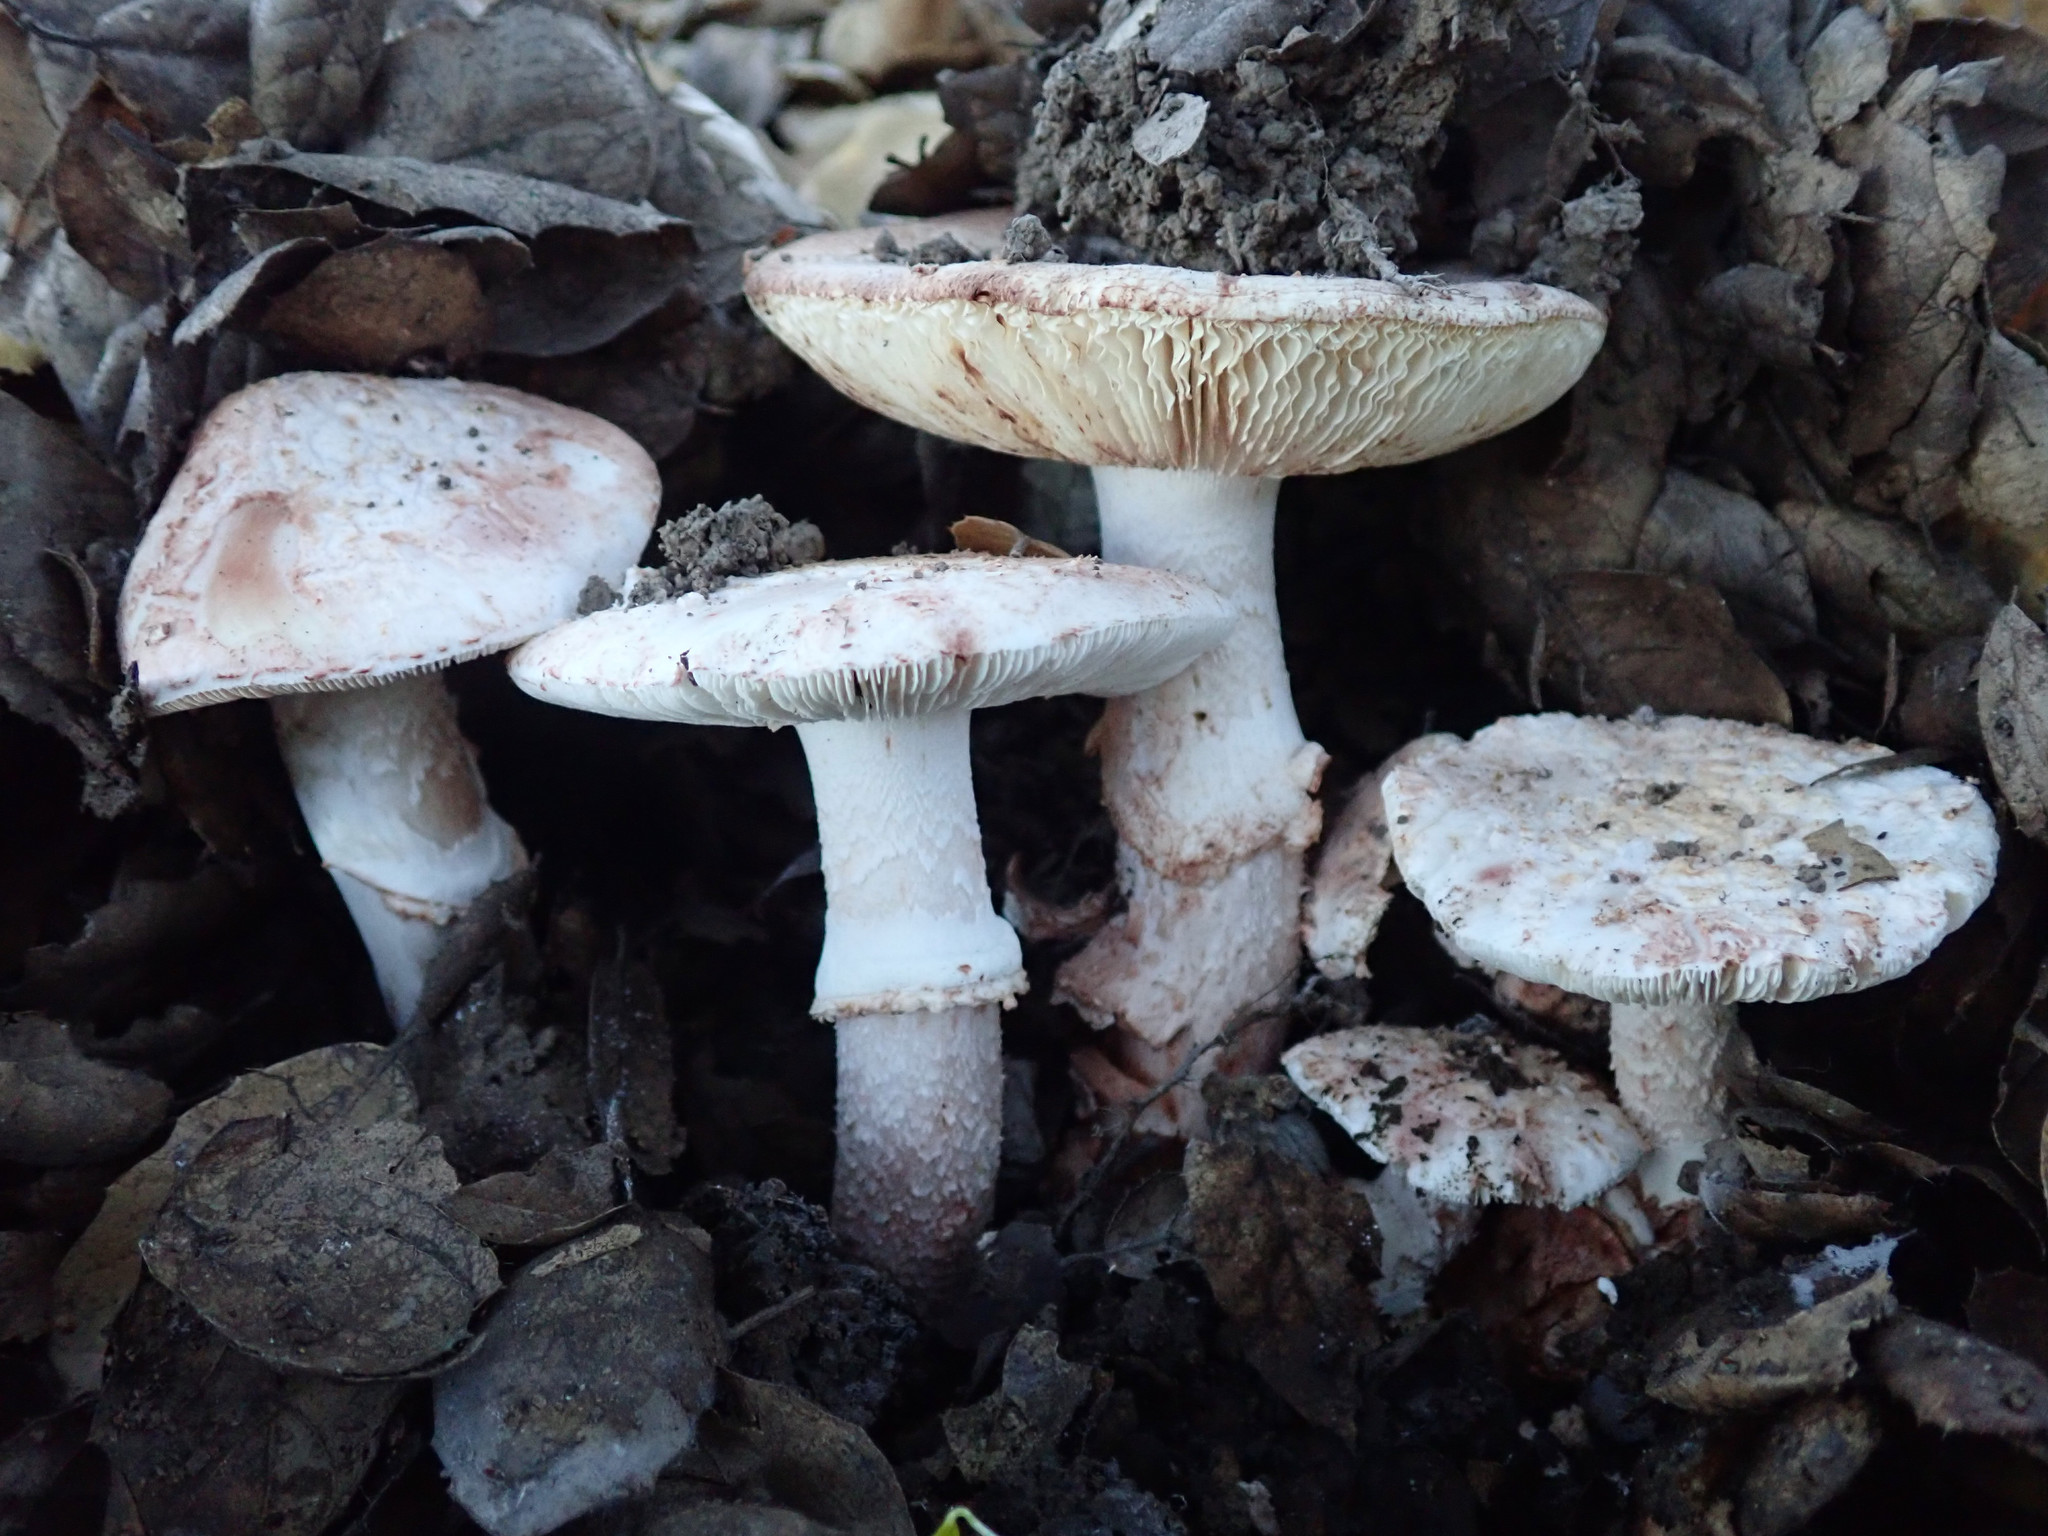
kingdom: Fungi
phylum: Basidiomycota
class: Agaricomycetes
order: Agaricales
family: Amanitaceae
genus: Amanita
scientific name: Amanita novinupta
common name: Blushing bride
